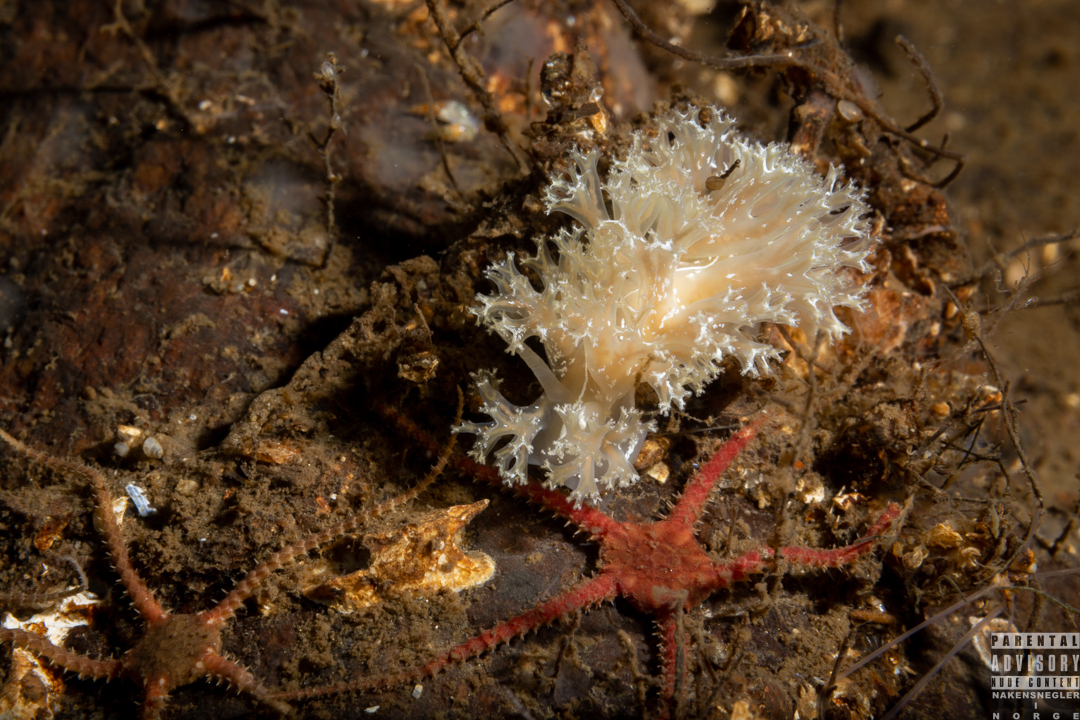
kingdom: Animalia
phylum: Mollusca
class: Gastropoda
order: Nudibranchia
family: Heroidae
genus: Hero
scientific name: Hero formosa
